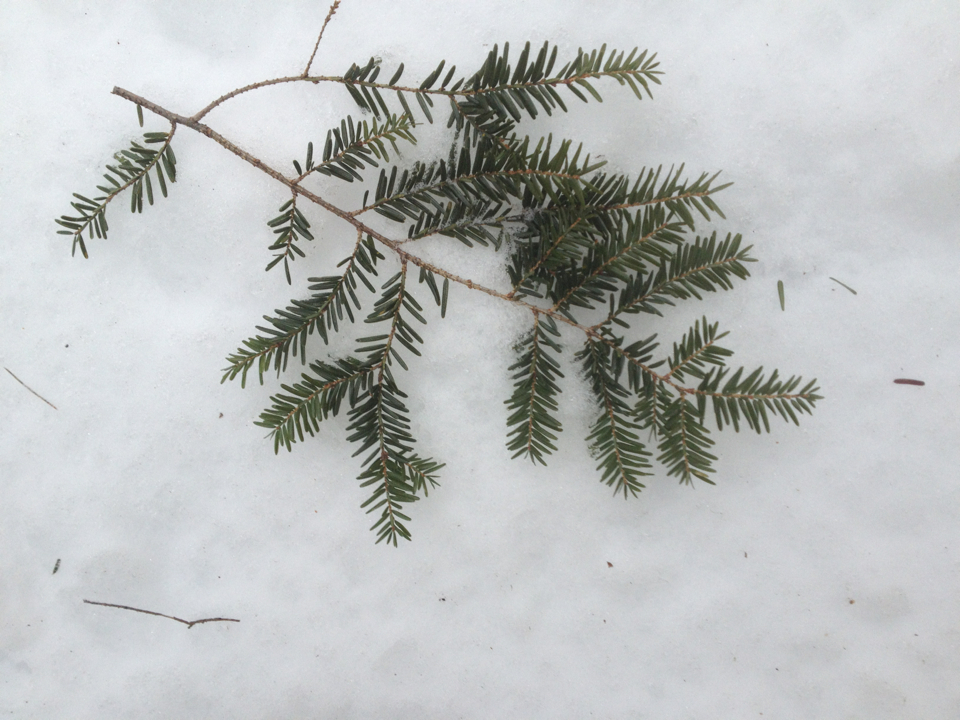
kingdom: Plantae
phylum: Tracheophyta
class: Pinopsida
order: Pinales
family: Pinaceae
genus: Tsuga
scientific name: Tsuga canadensis
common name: Eastern hemlock
